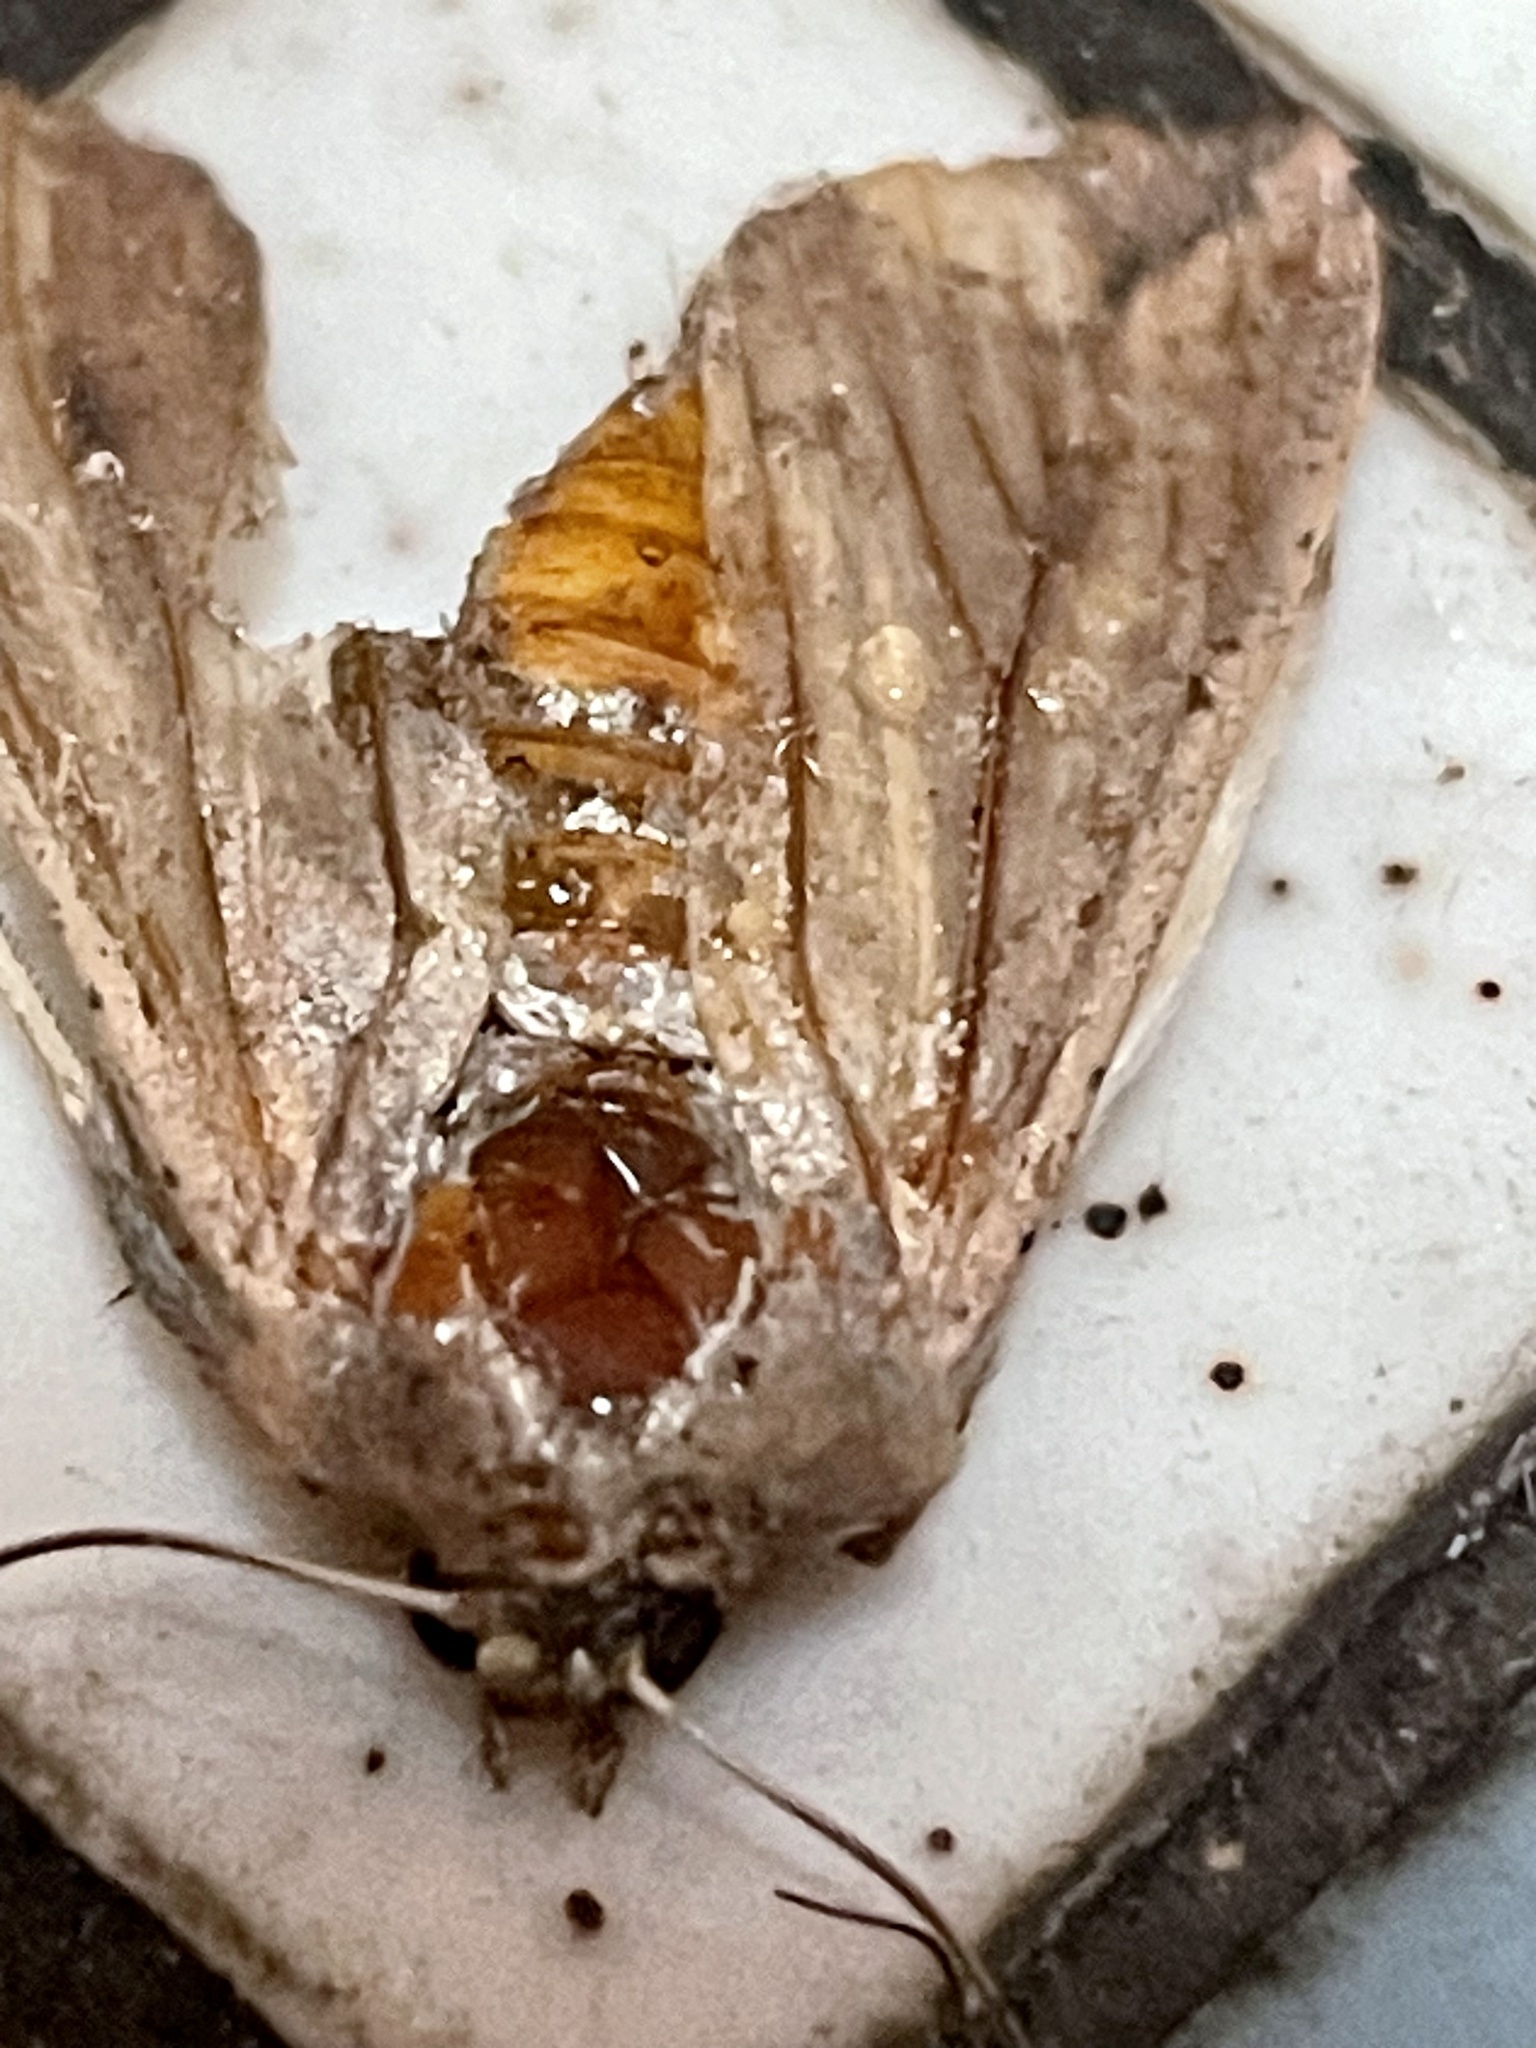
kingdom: Animalia
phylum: Arthropoda
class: Insecta
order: Lepidoptera
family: Noctuidae
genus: Mythimna
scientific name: Mythimna unipuncta
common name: White-speck
